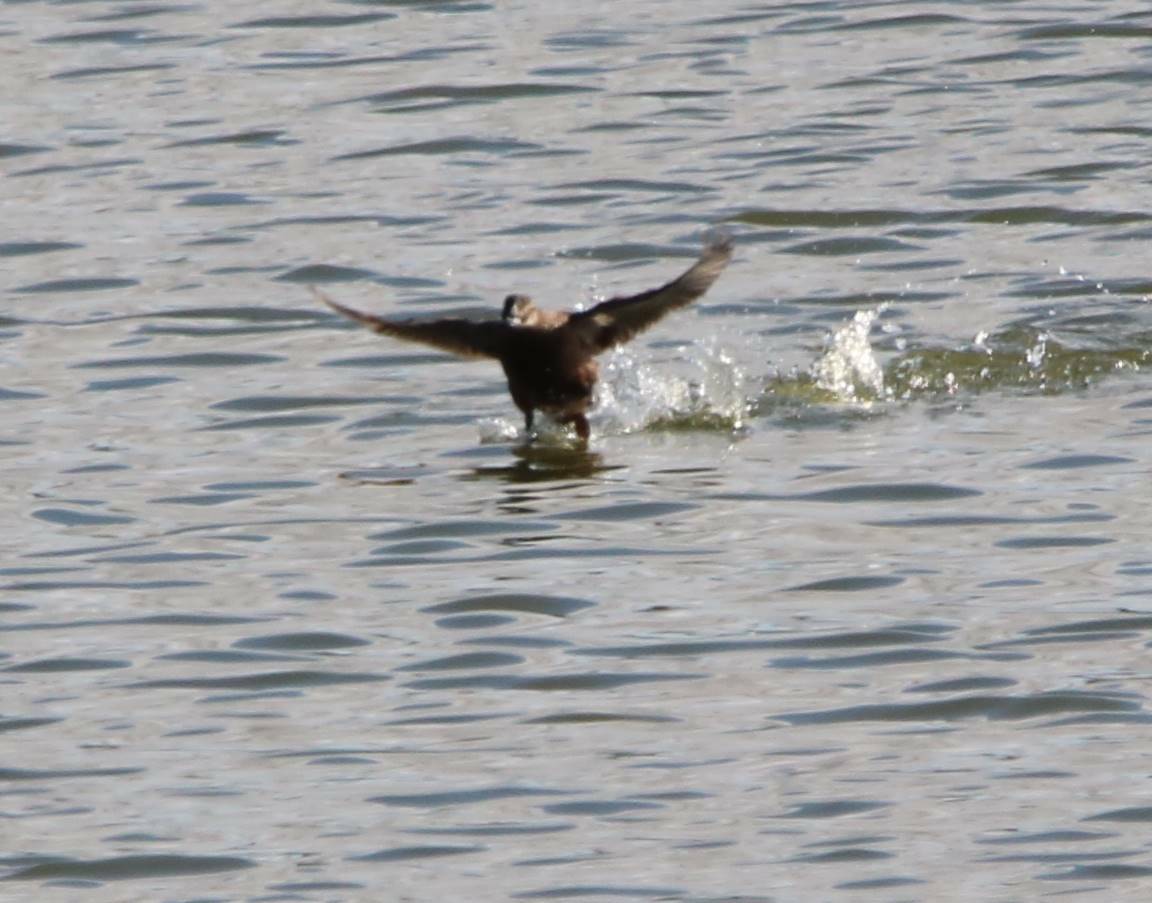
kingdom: Animalia
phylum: Chordata
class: Aves
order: Anseriformes
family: Anatidae
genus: Oxyura
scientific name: Oxyura leucocephala
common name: White-headed duck
